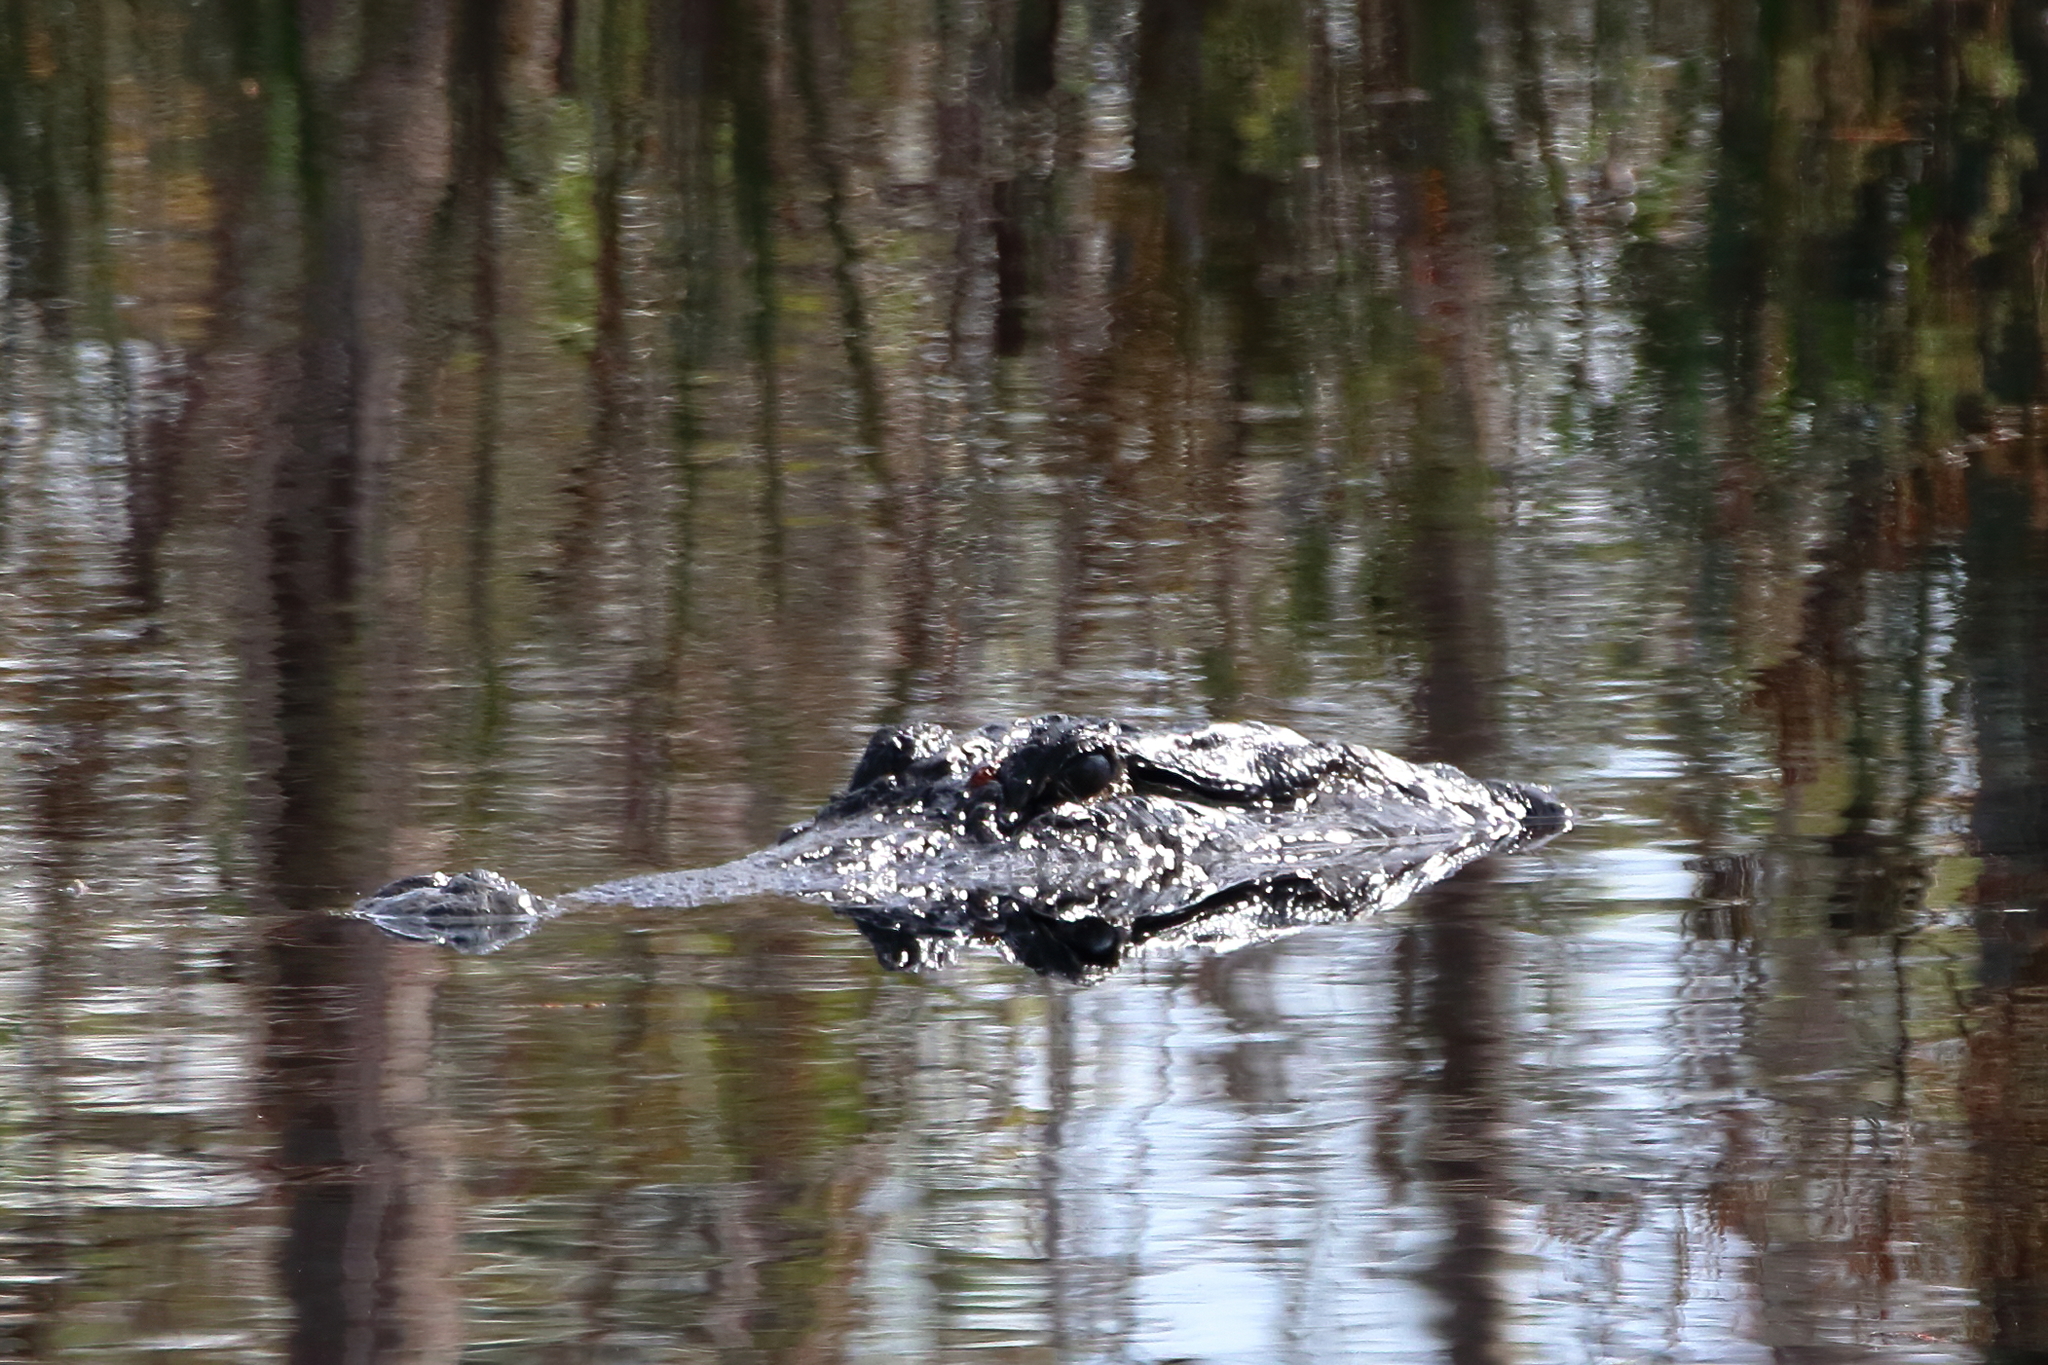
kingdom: Animalia
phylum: Chordata
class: Crocodylia
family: Alligatoridae
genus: Alligator
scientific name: Alligator mississippiensis
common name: American alligator
